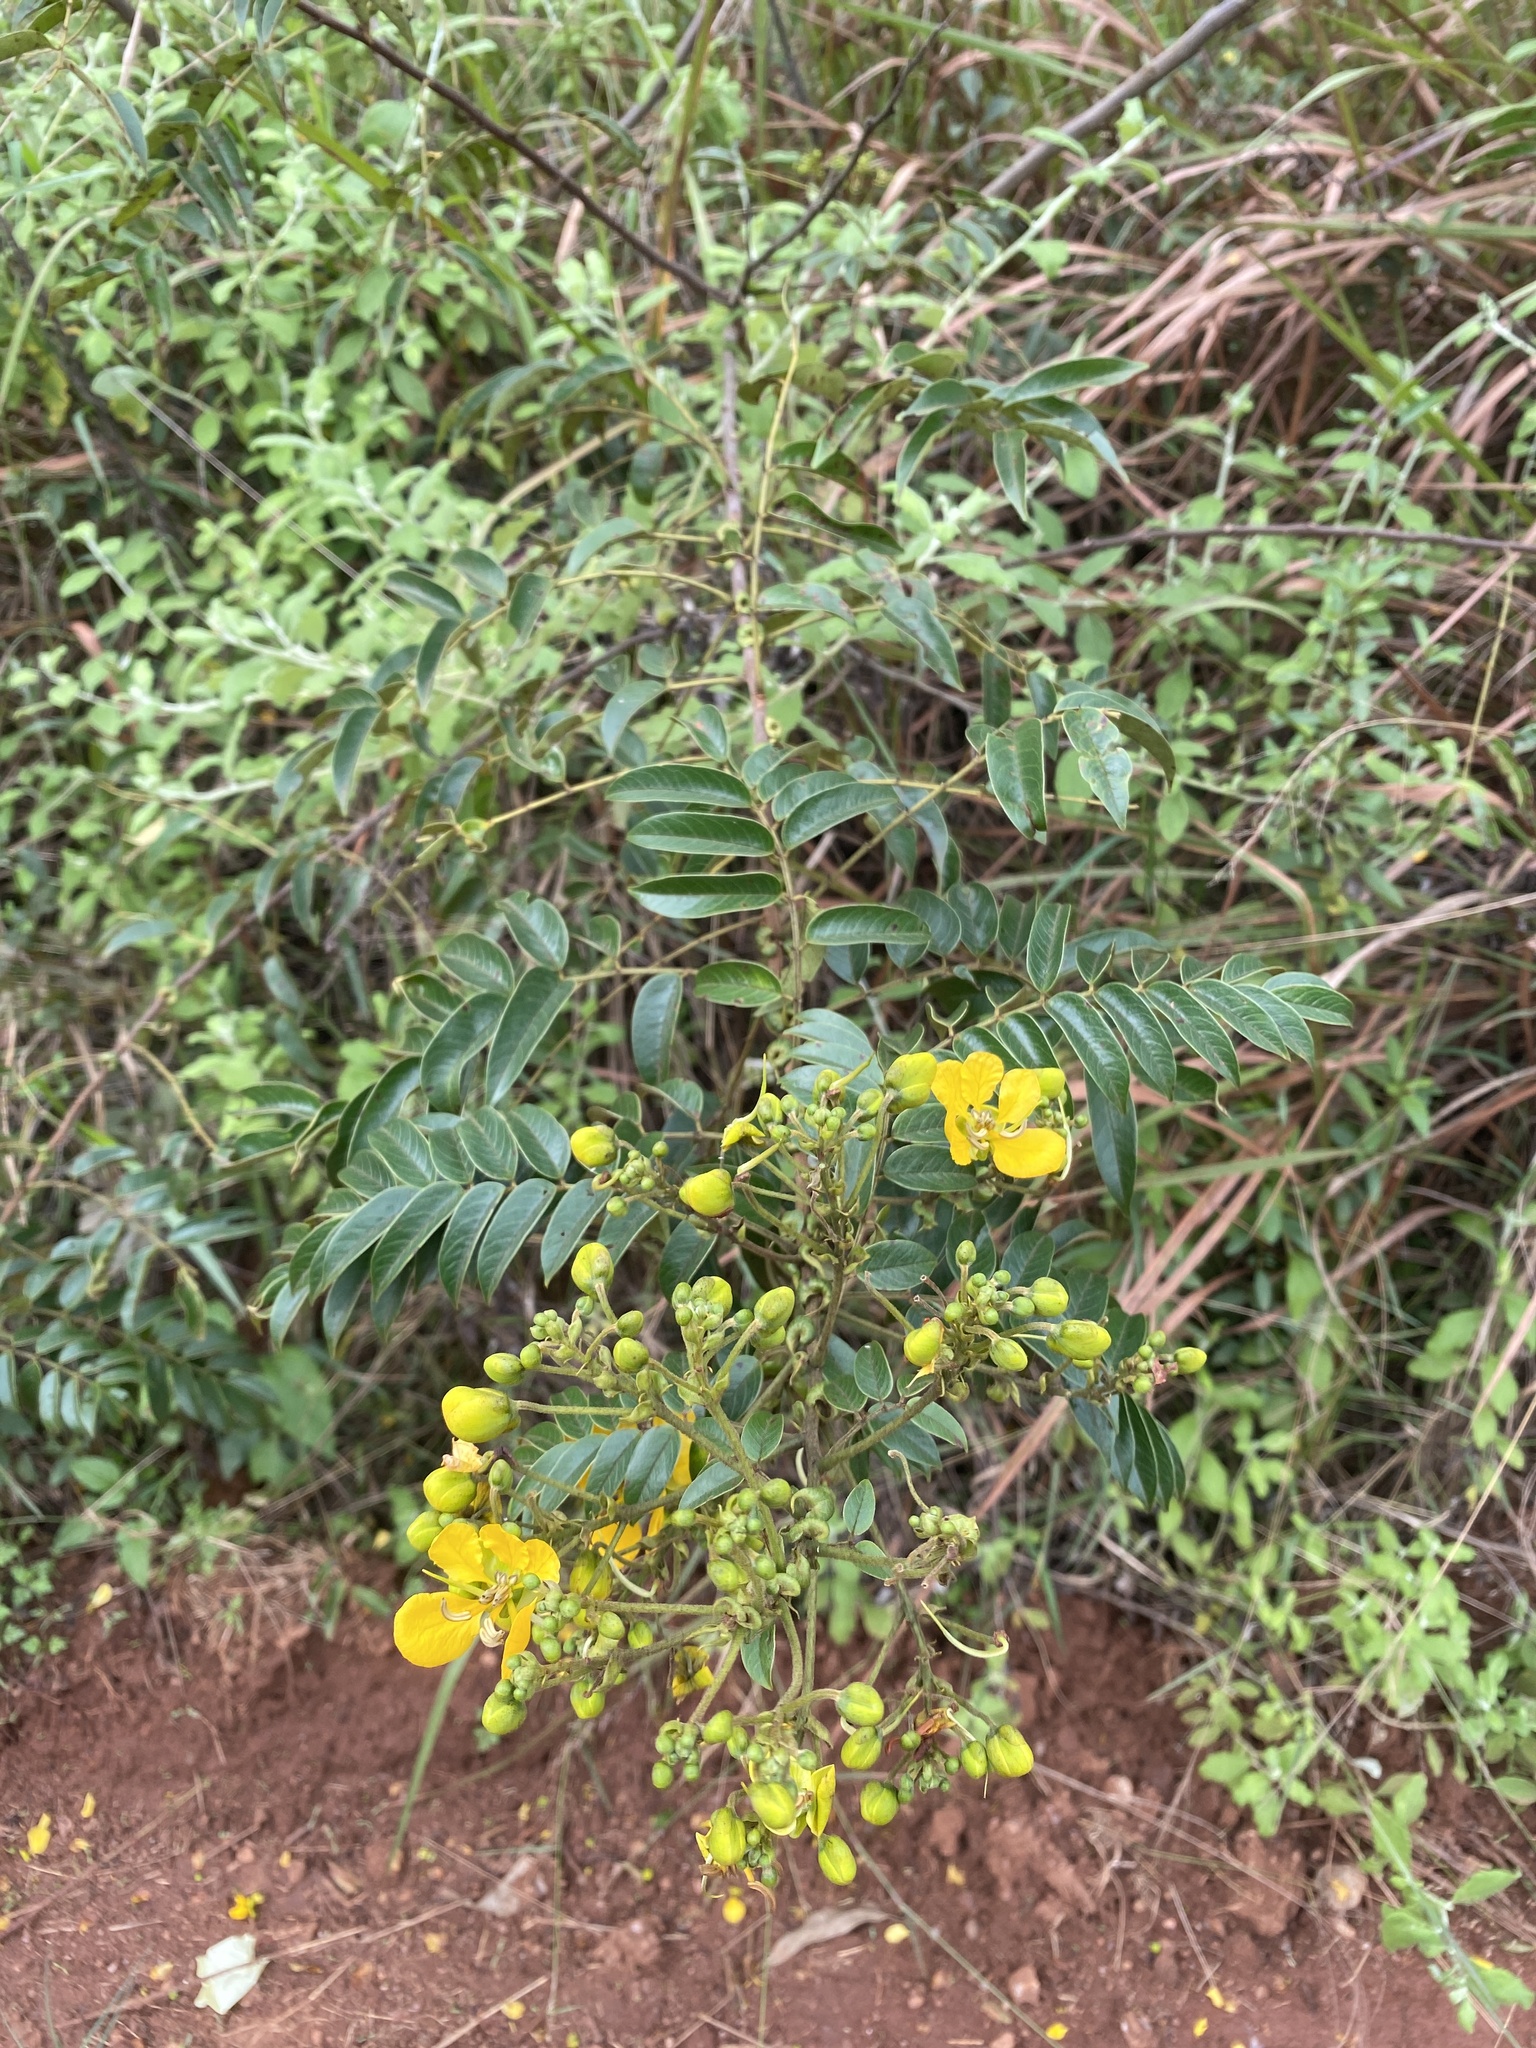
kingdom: Plantae
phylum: Tracheophyta
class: Magnoliopsida
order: Fabales
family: Fabaceae
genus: Senna
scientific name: Senna petersiana
